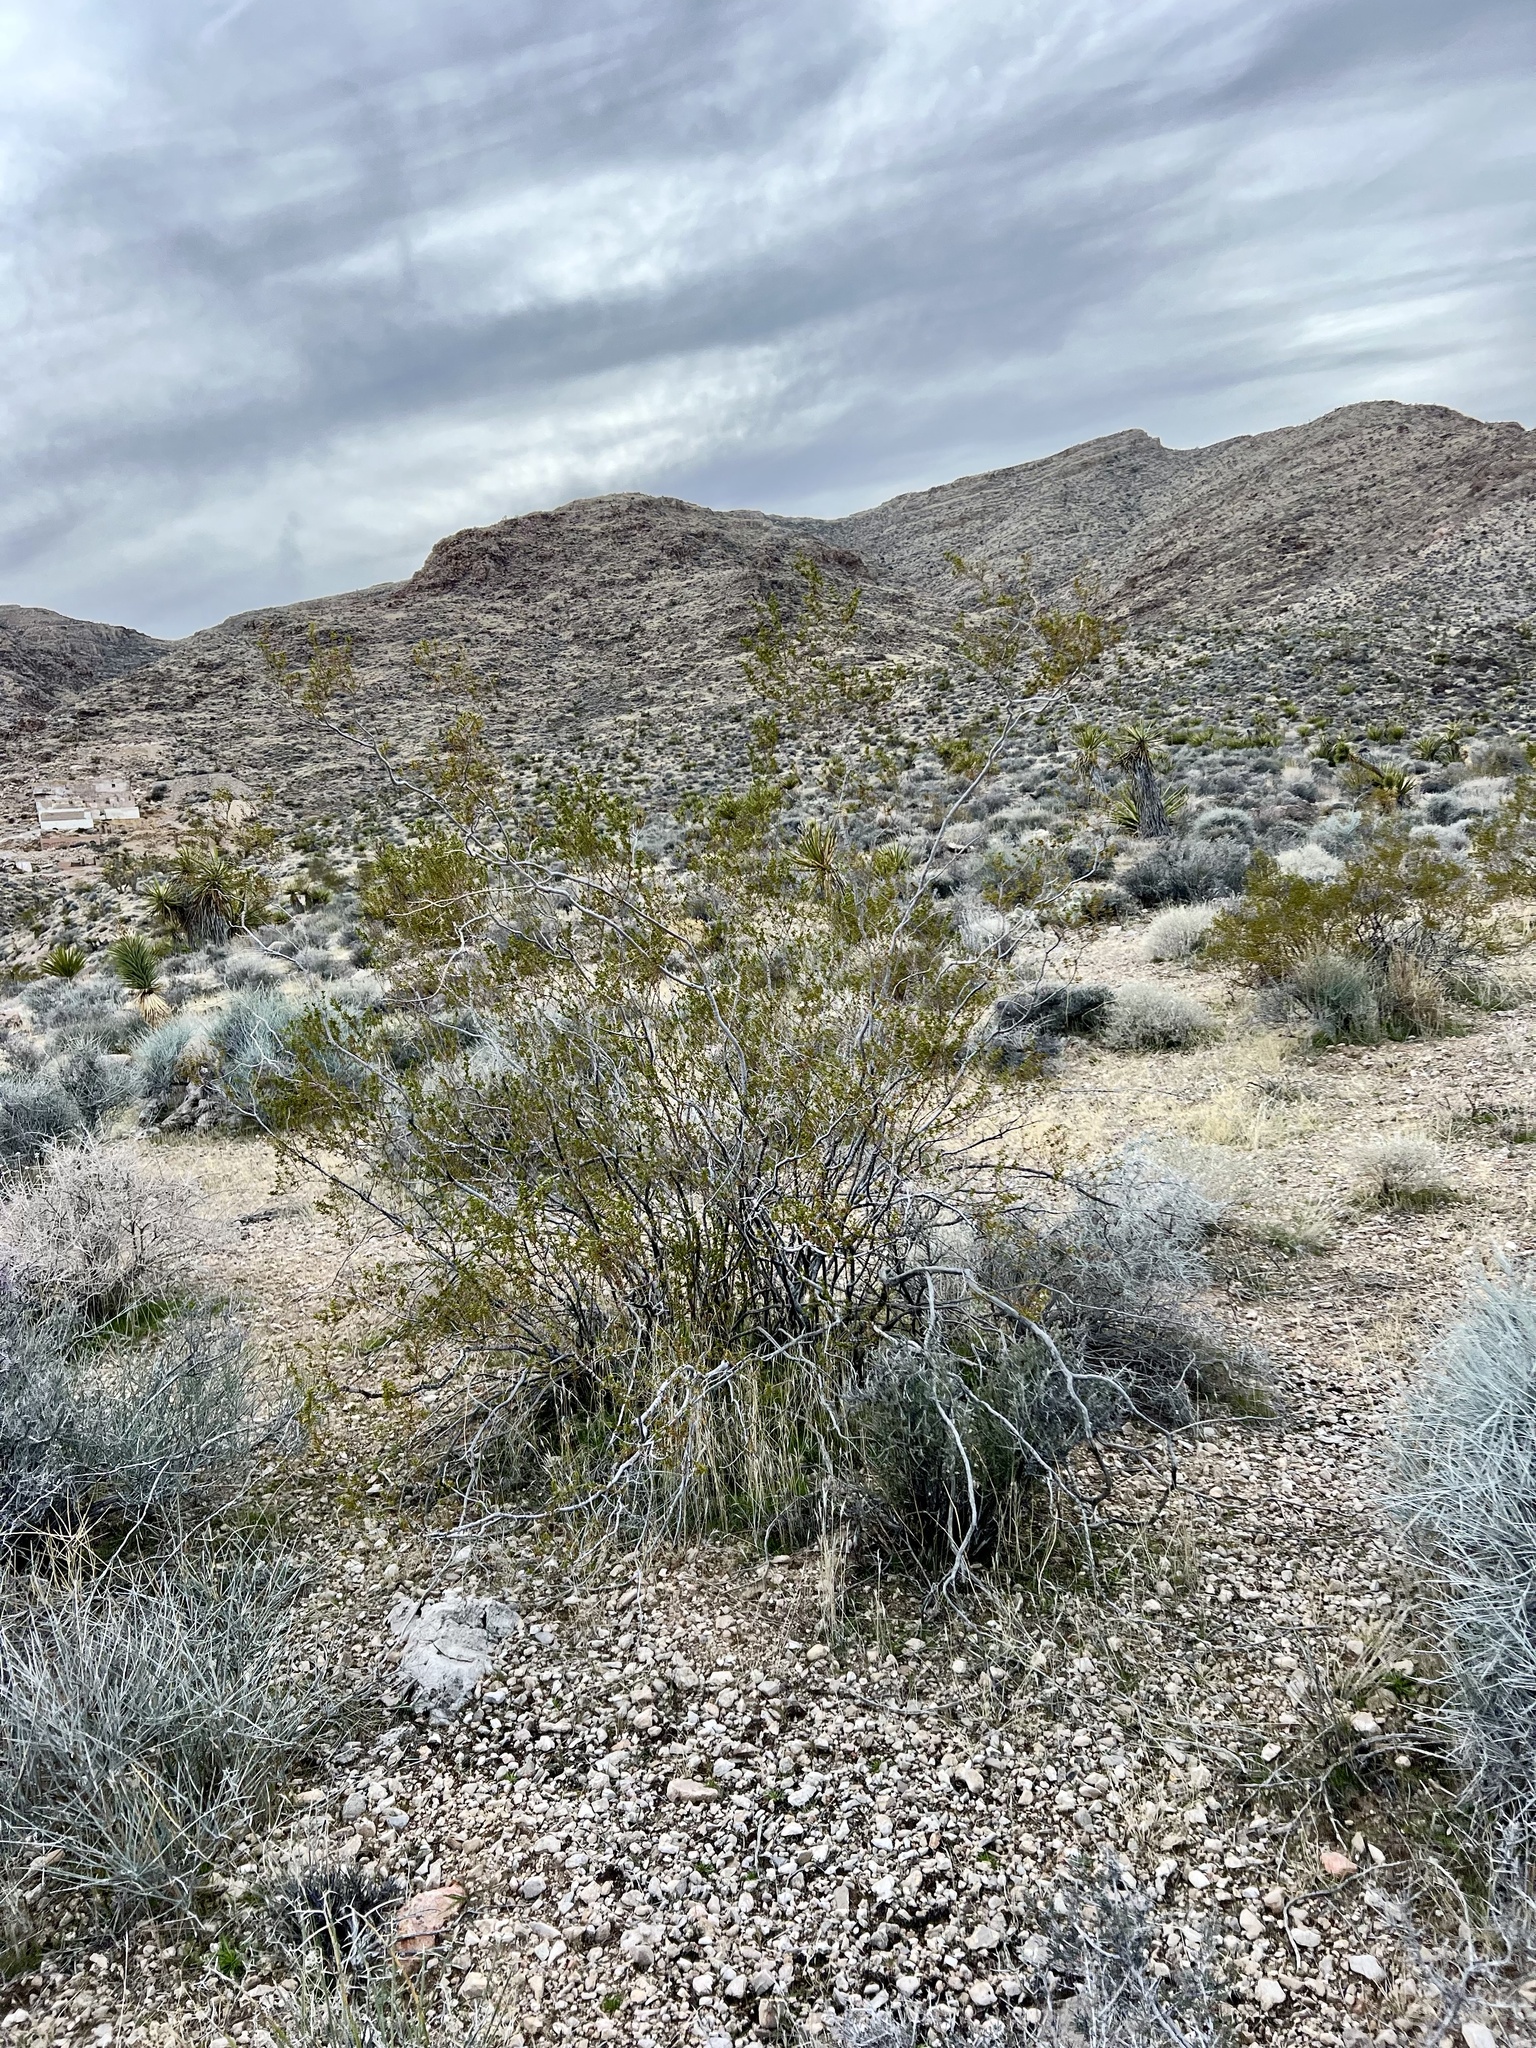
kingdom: Plantae
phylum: Tracheophyta
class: Magnoliopsida
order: Zygophyllales
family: Zygophyllaceae
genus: Larrea
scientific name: Larrea tridentata
